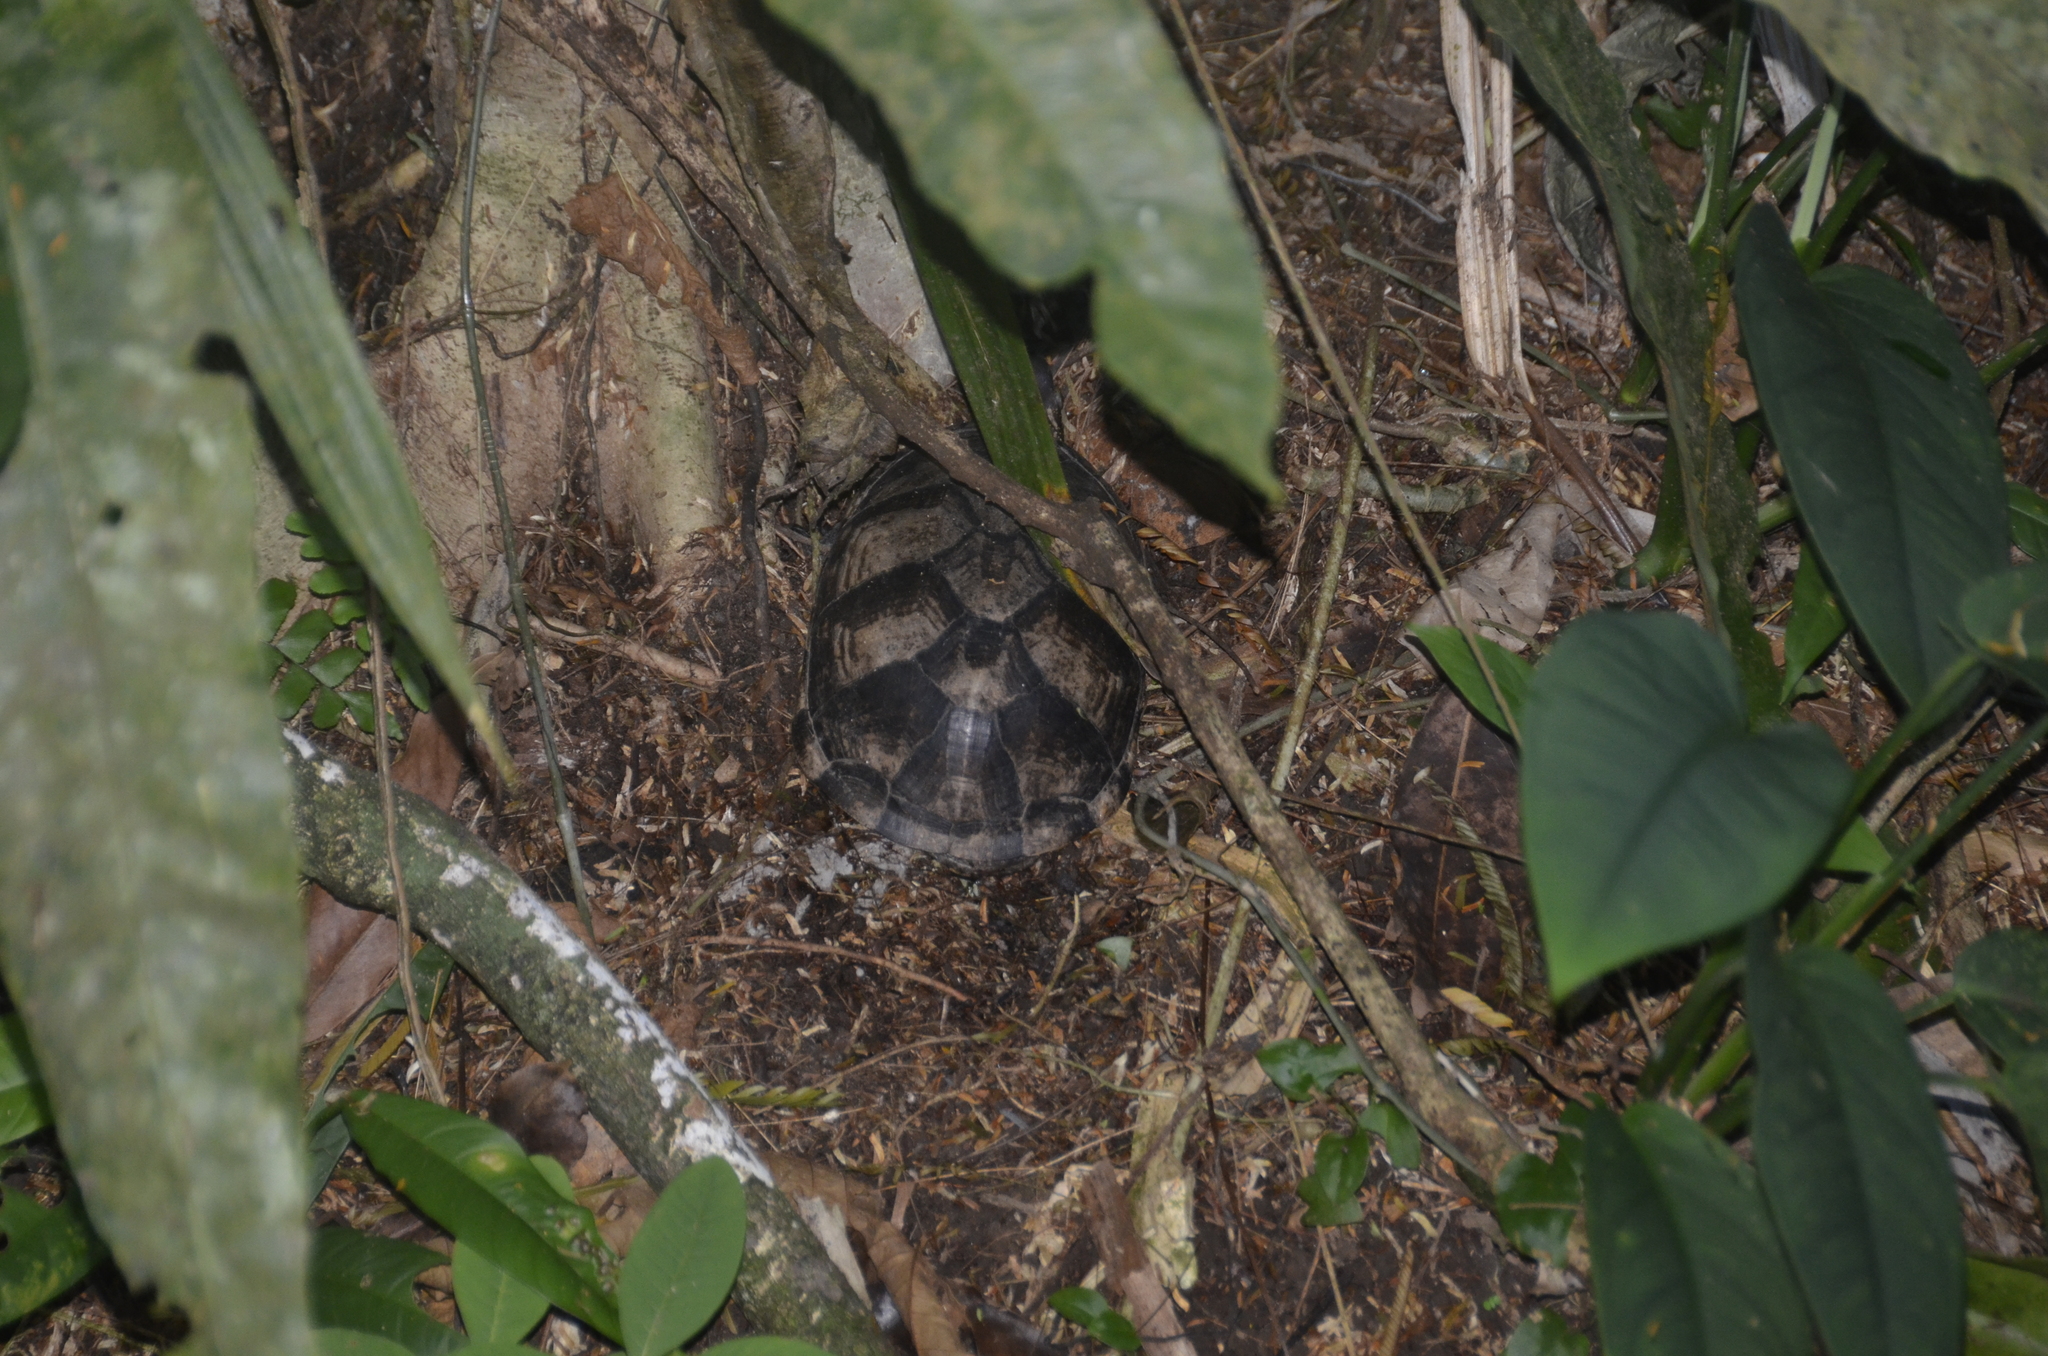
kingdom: Animalia
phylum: Chordata
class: Testudines
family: Kinosternidae
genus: Kinosternon
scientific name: Kinosternon leucostomum
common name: White-lipped mud turtle
